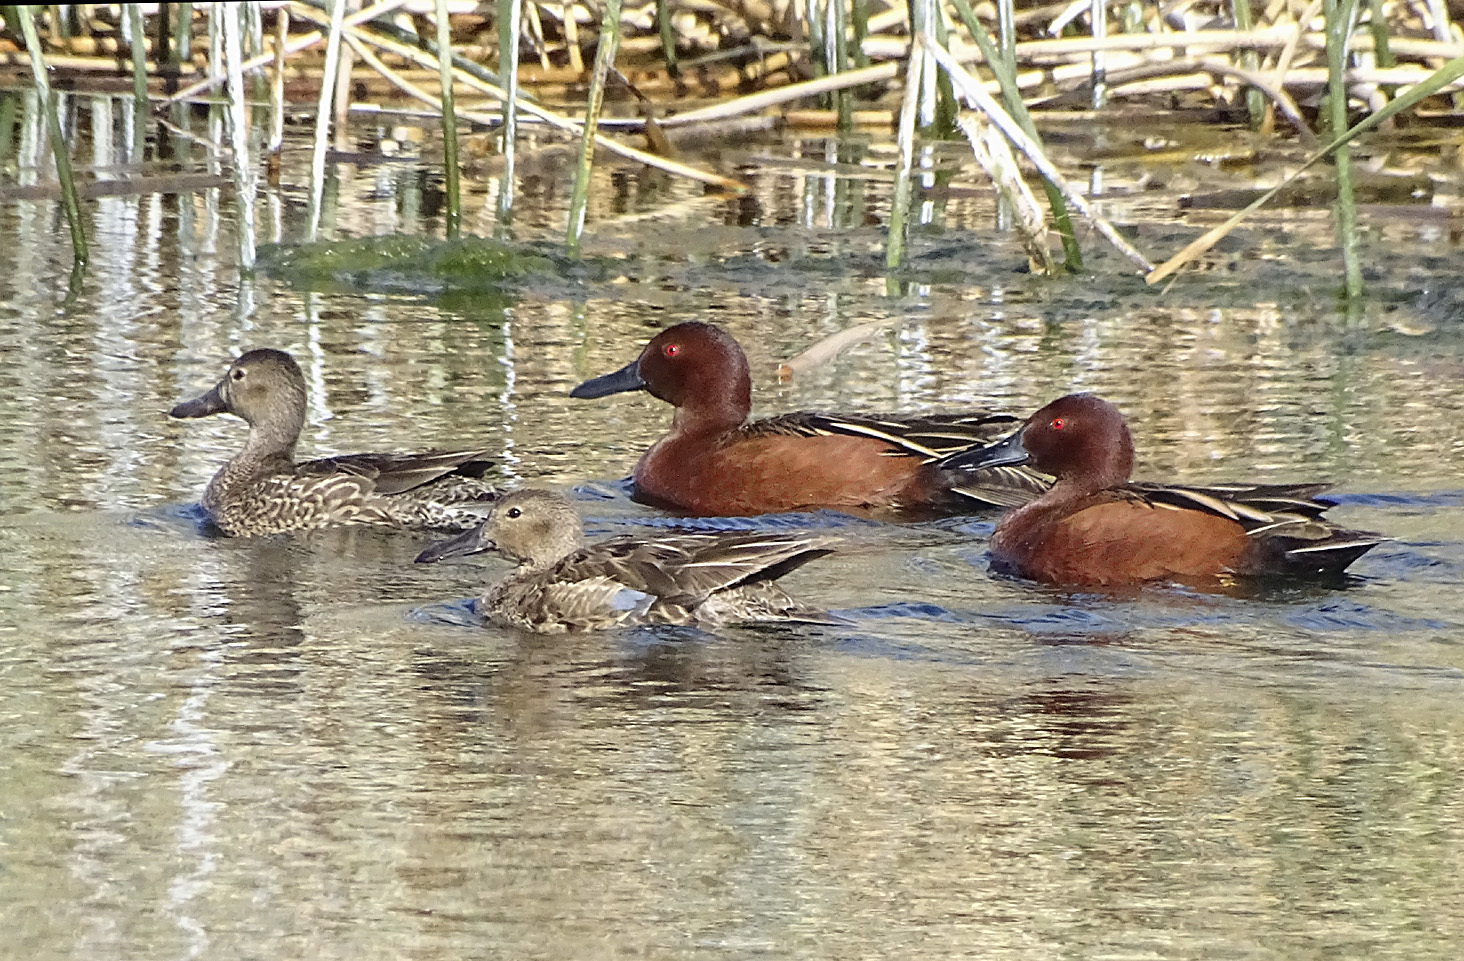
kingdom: Animalia
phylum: Chordata
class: Aves
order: Anseriformes
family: Anatidae
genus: Spatula
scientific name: Spatula cyanoptera
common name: Cinnamon teal
